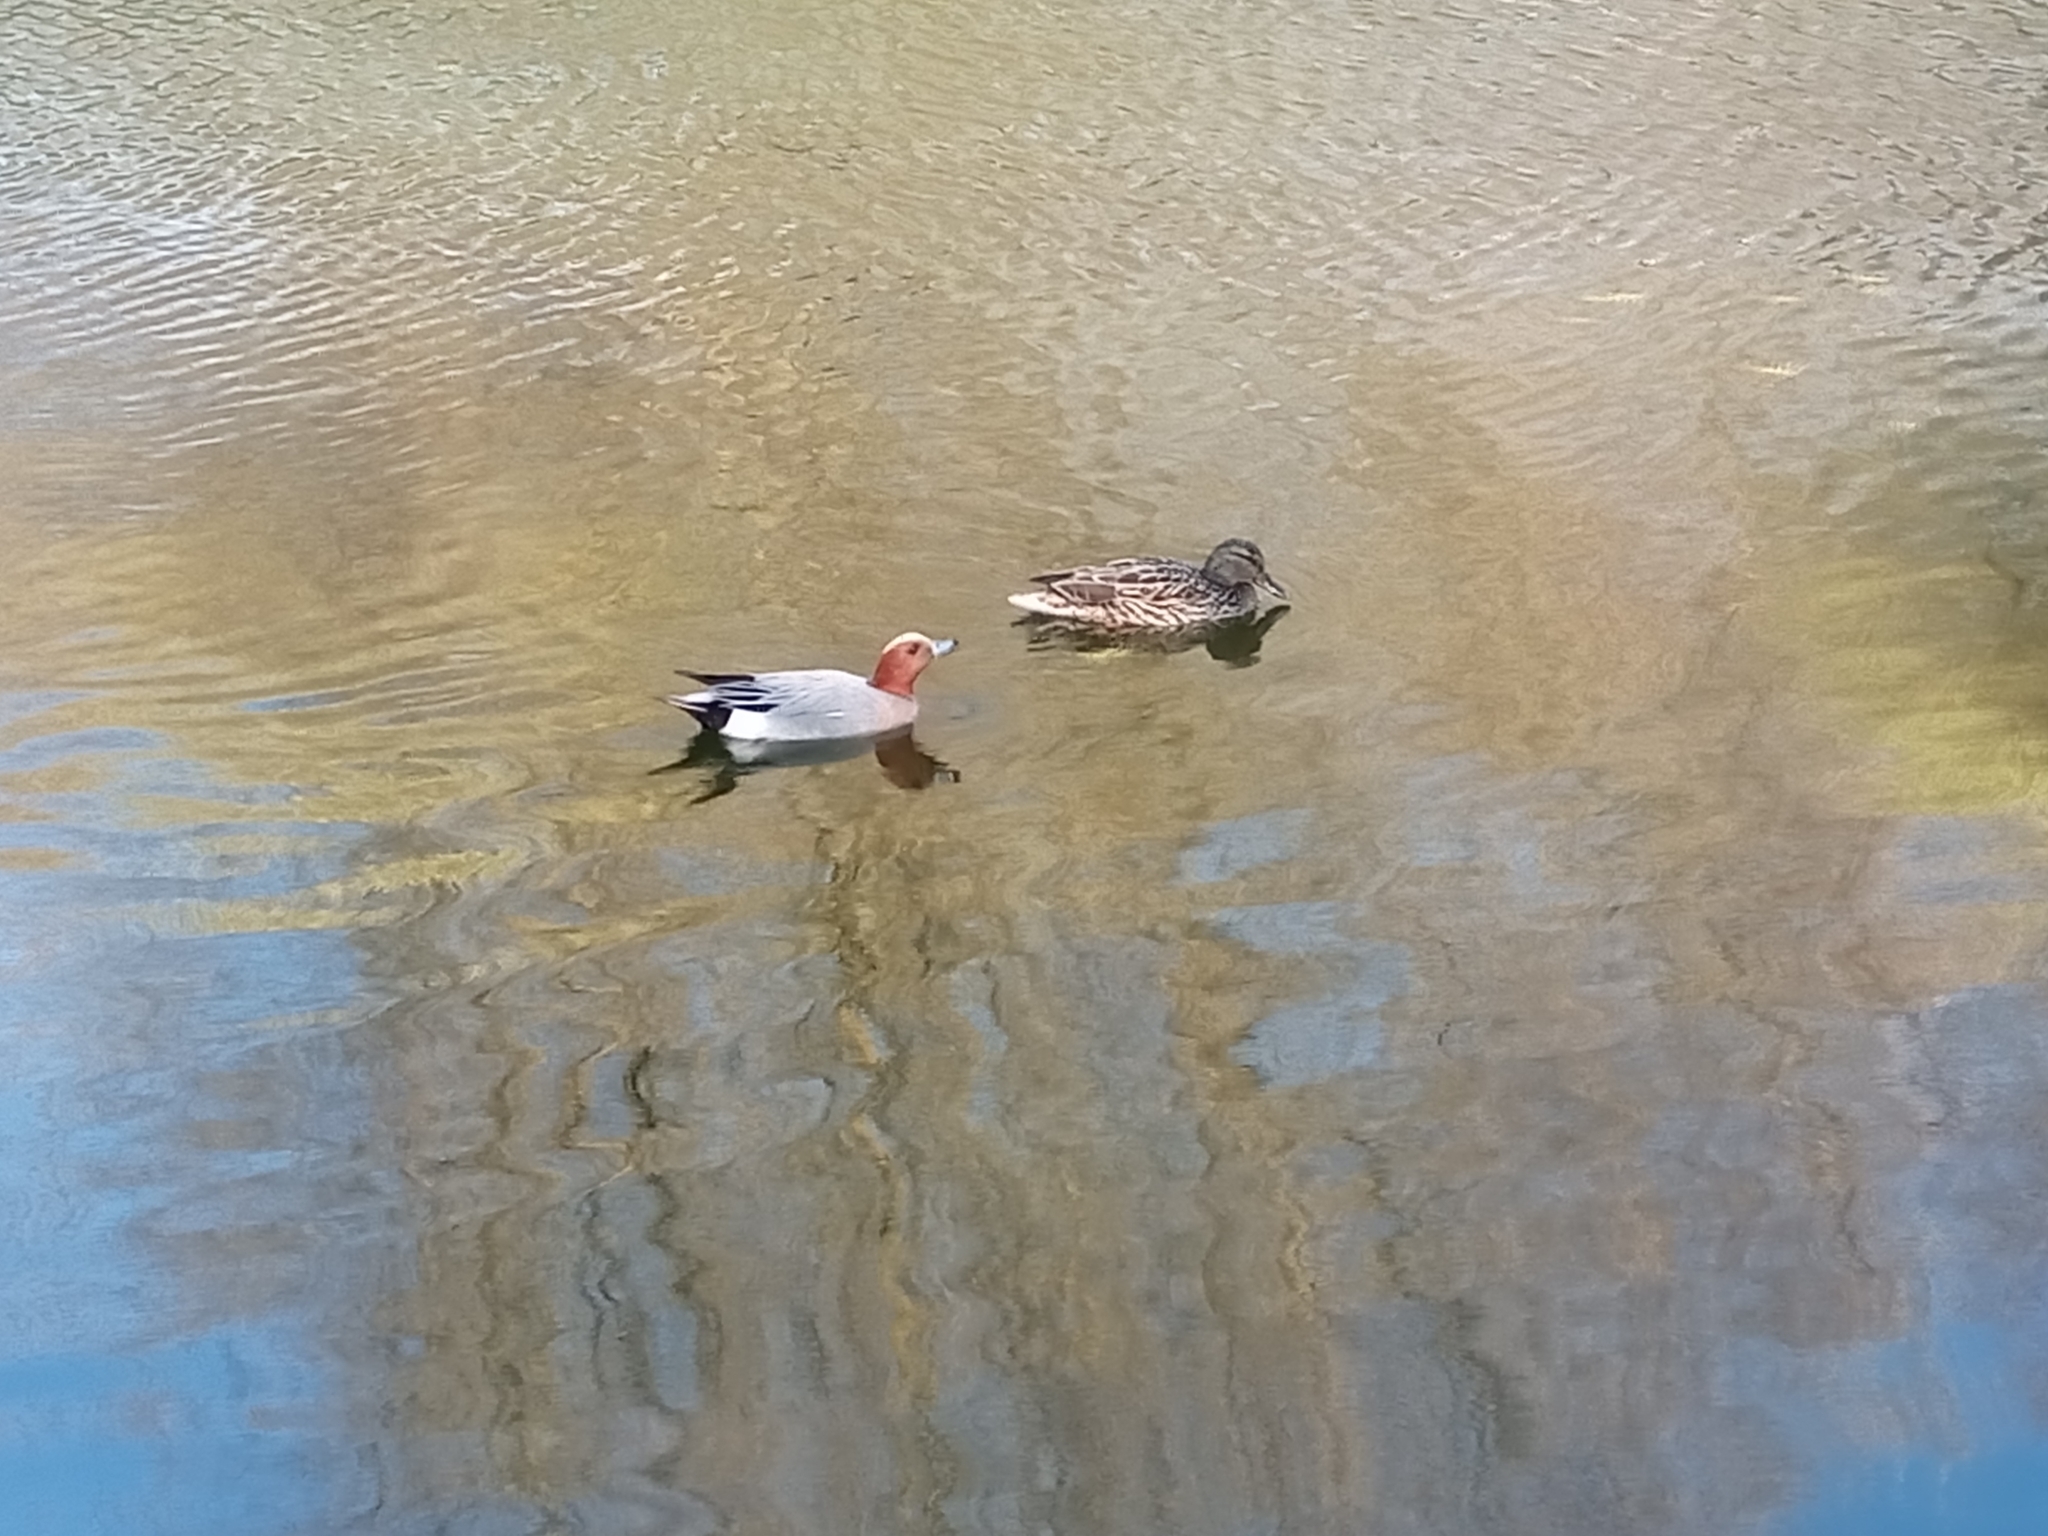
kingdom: Animalia
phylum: Chordata
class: Aves
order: Anseriformes
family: Anatidae
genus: Mareca
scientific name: Mareca penelope
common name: Eurasian wigeon
